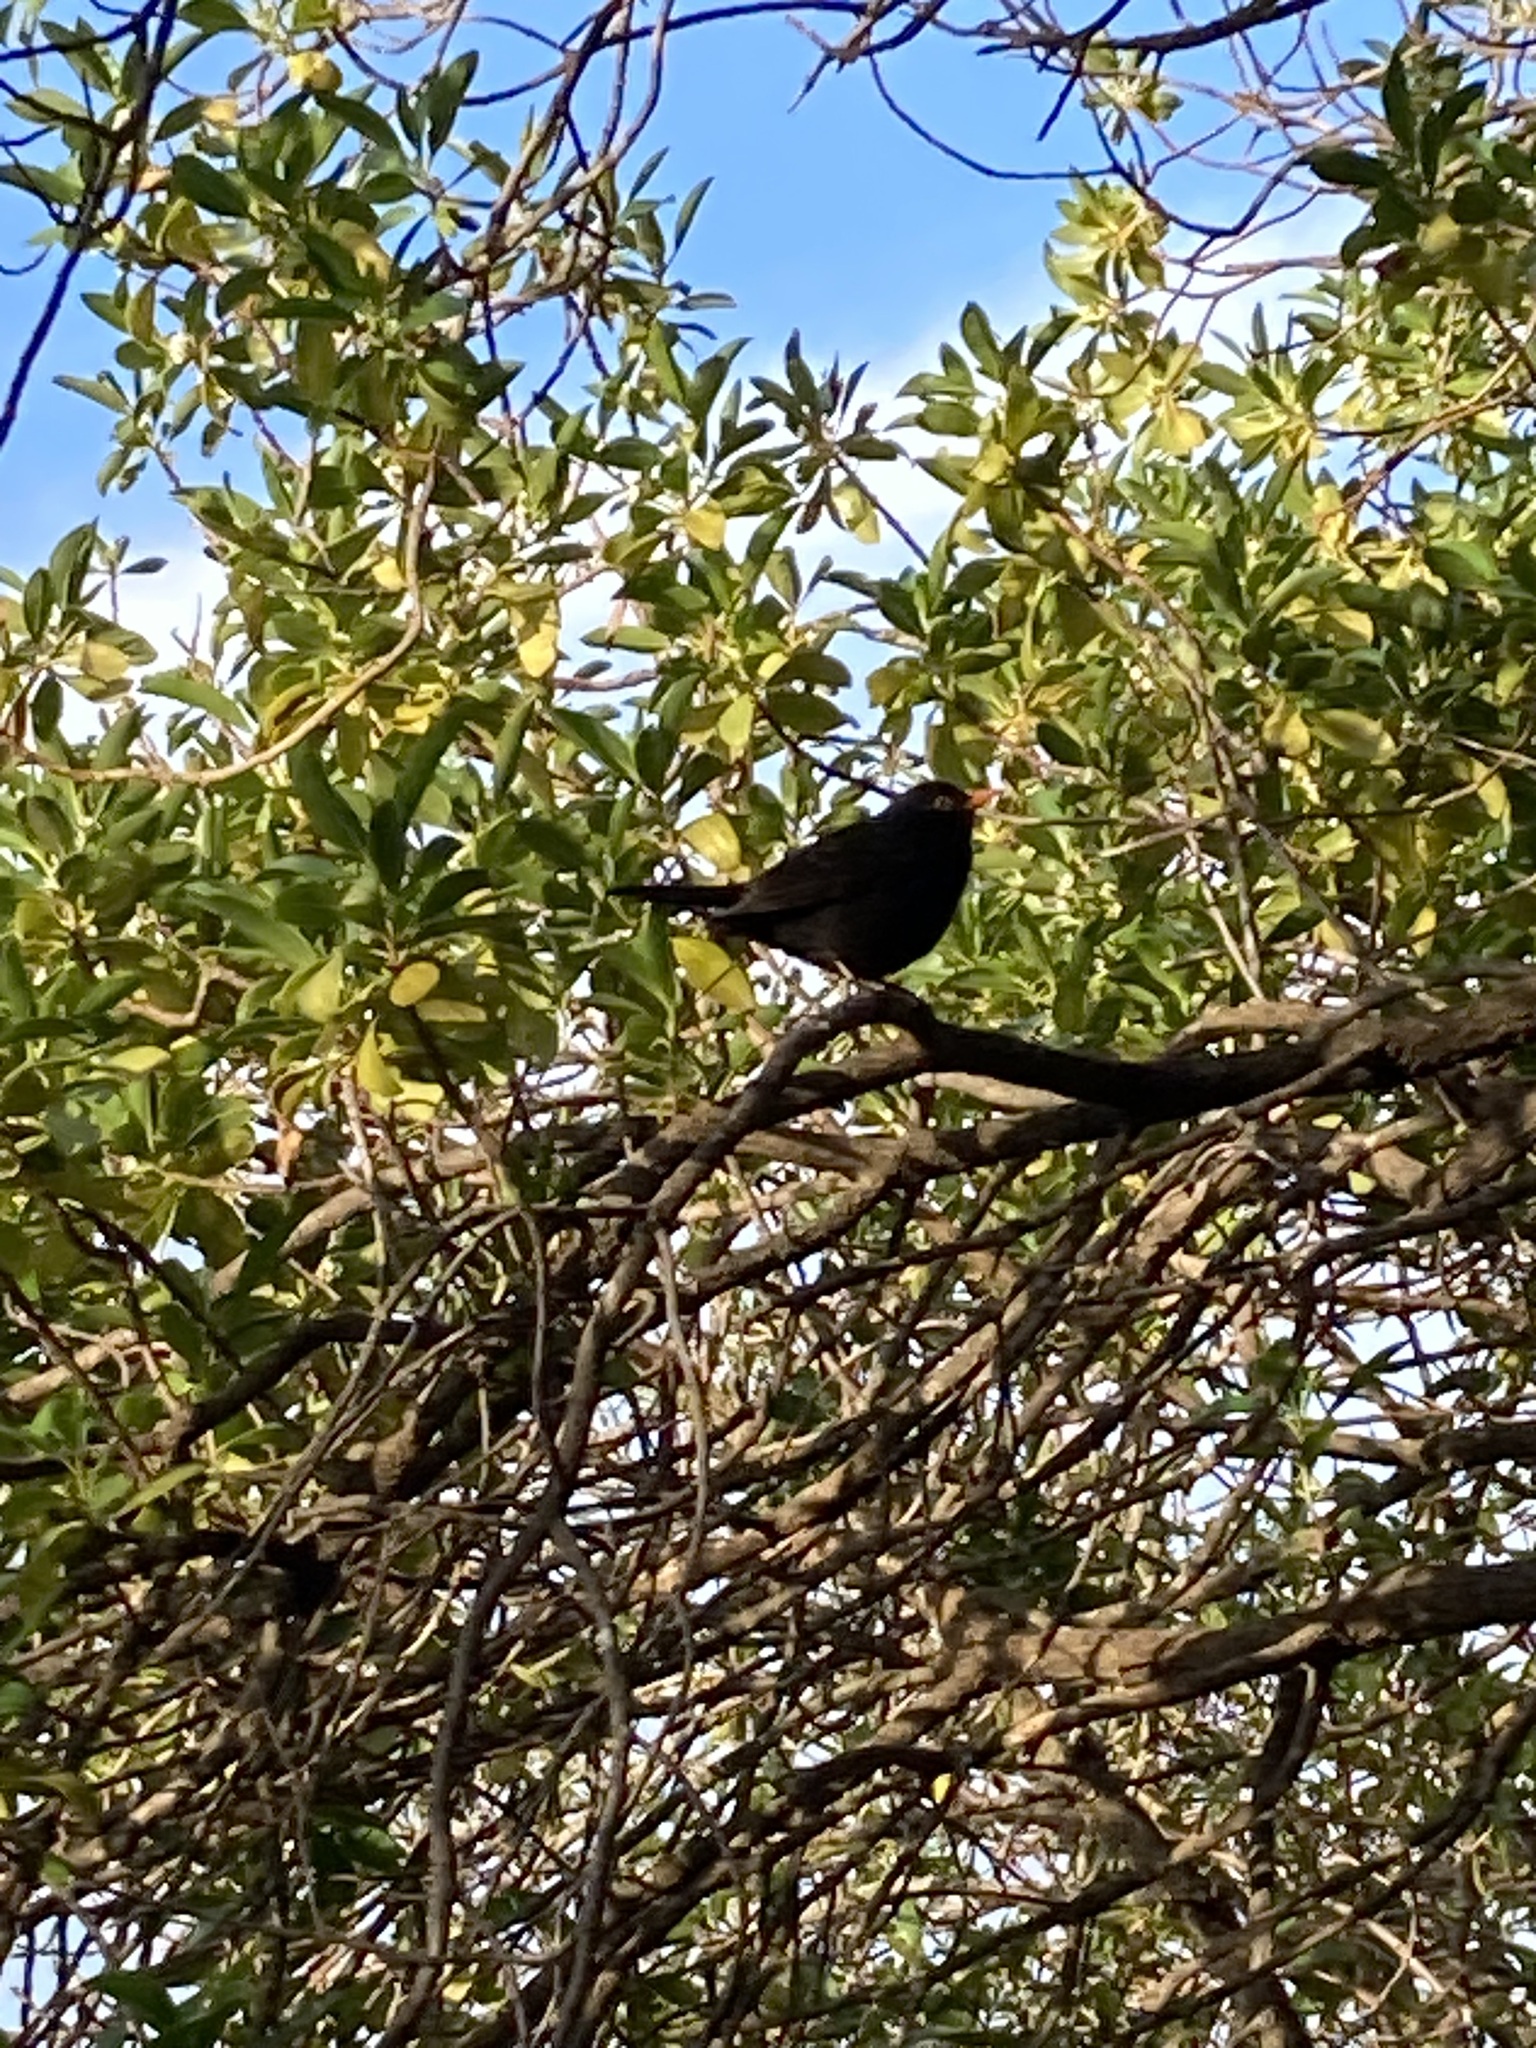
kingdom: Animalia
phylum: Chordata
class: Aves
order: Passeriformes
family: Turdidae
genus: Turdus
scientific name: Turdus merula
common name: Common blackbird
